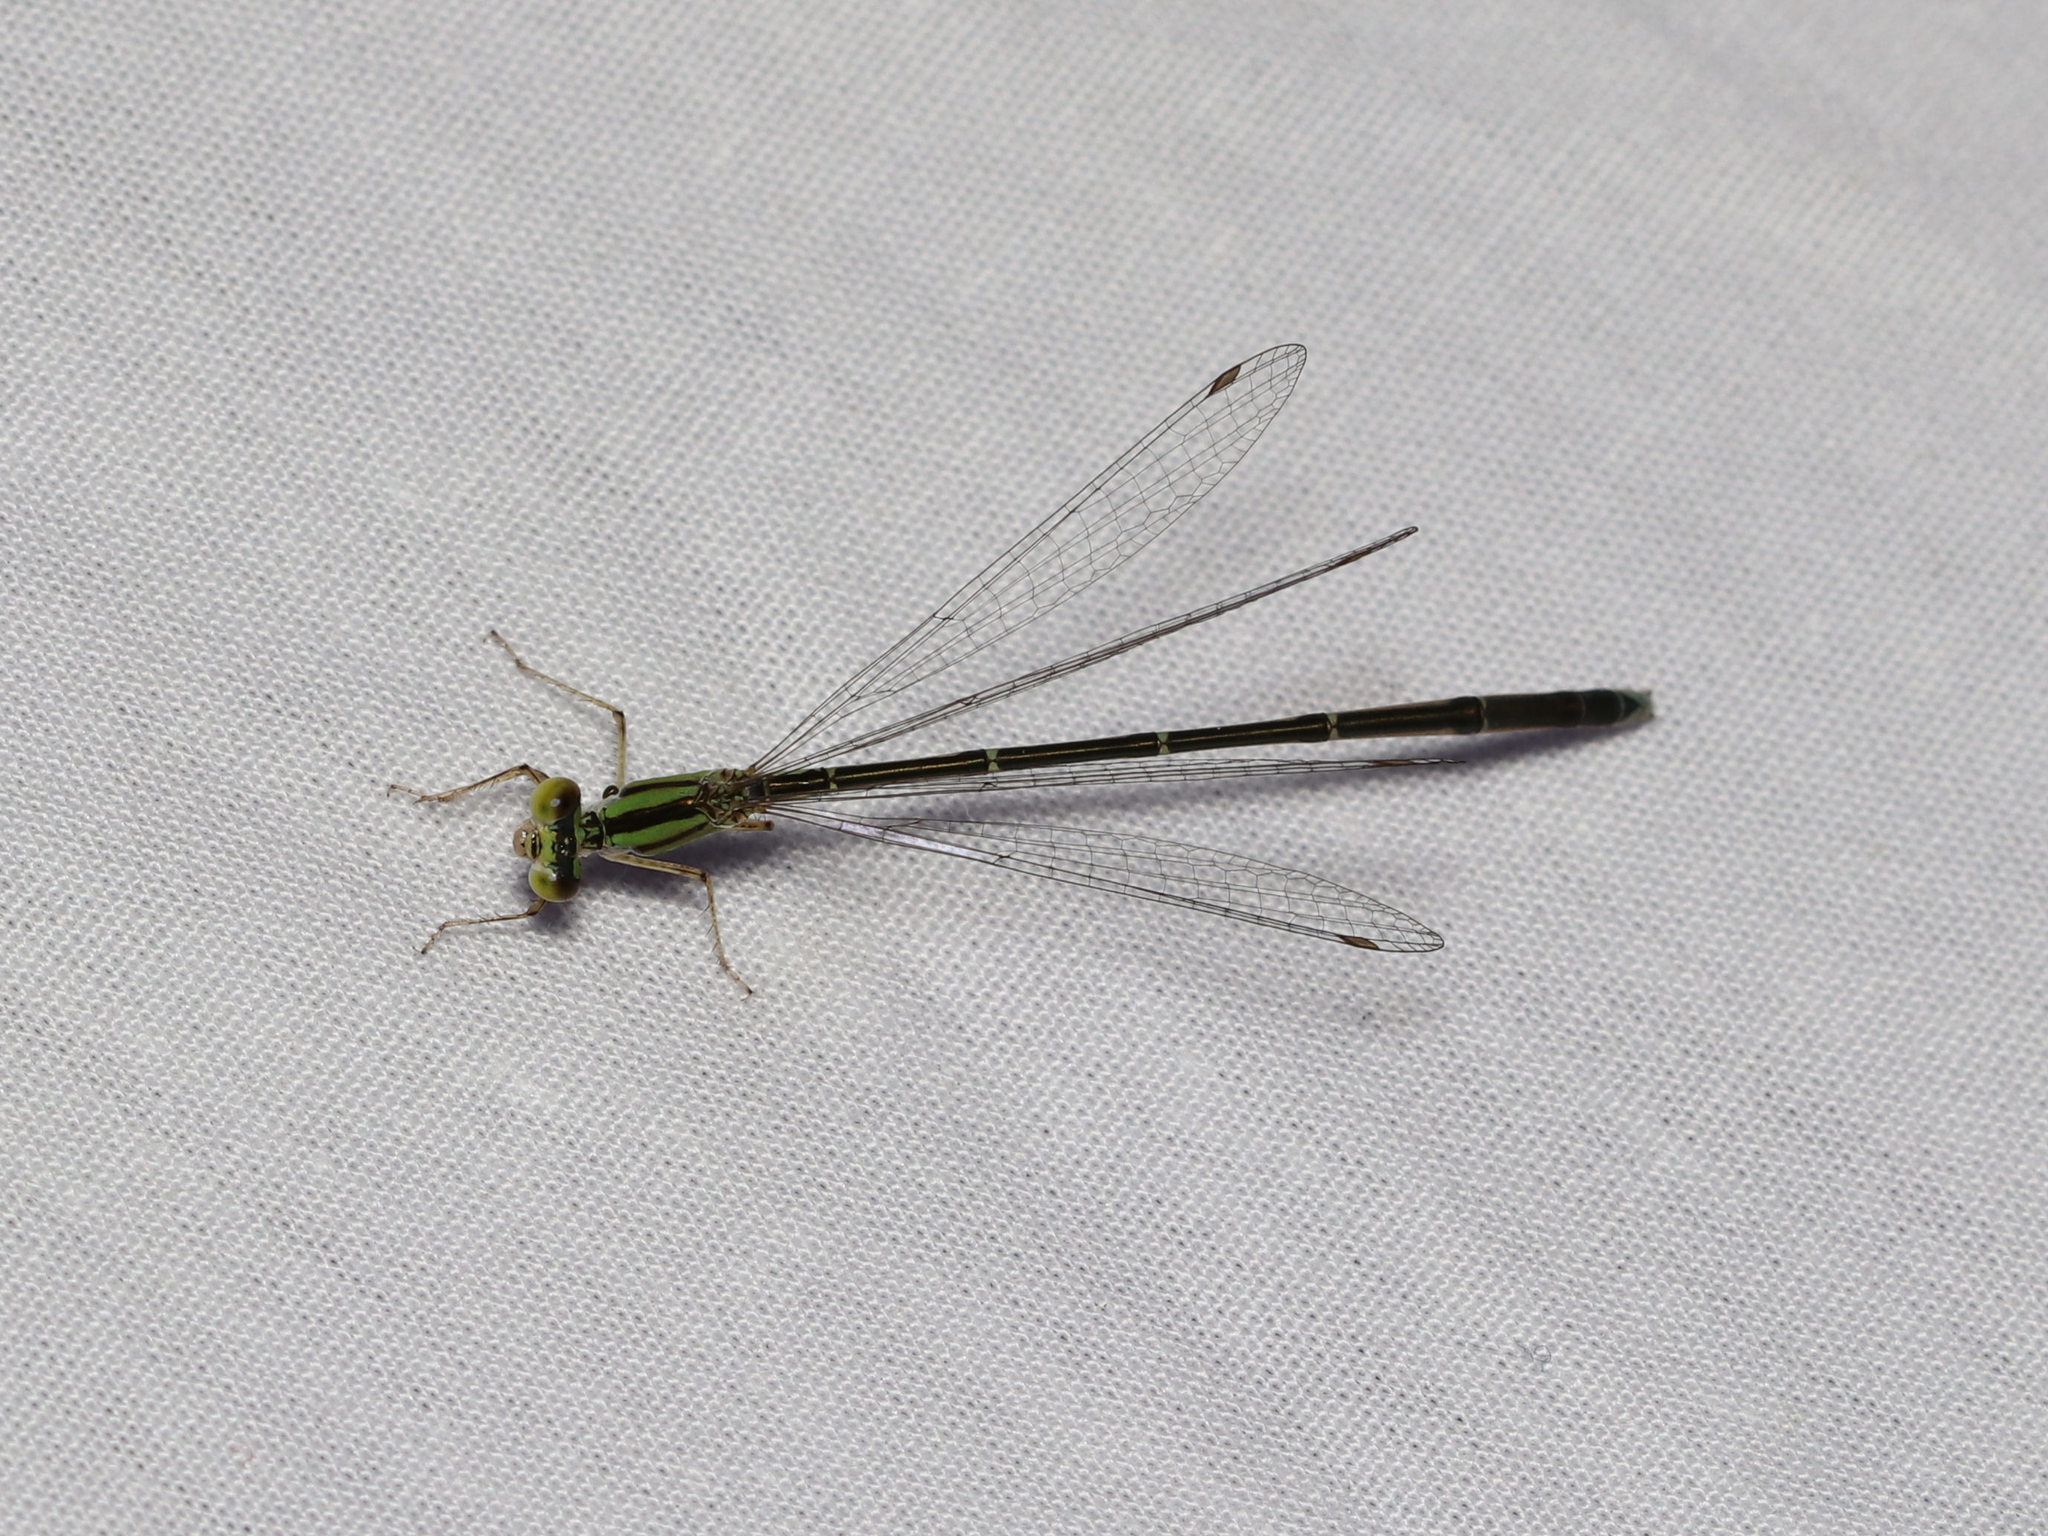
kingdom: Animalia
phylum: Arthropoda
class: Insecta
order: Odonata
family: Coenagrionidae
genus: Enallagma
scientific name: Enallagma vesperum
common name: Vesper bluet
